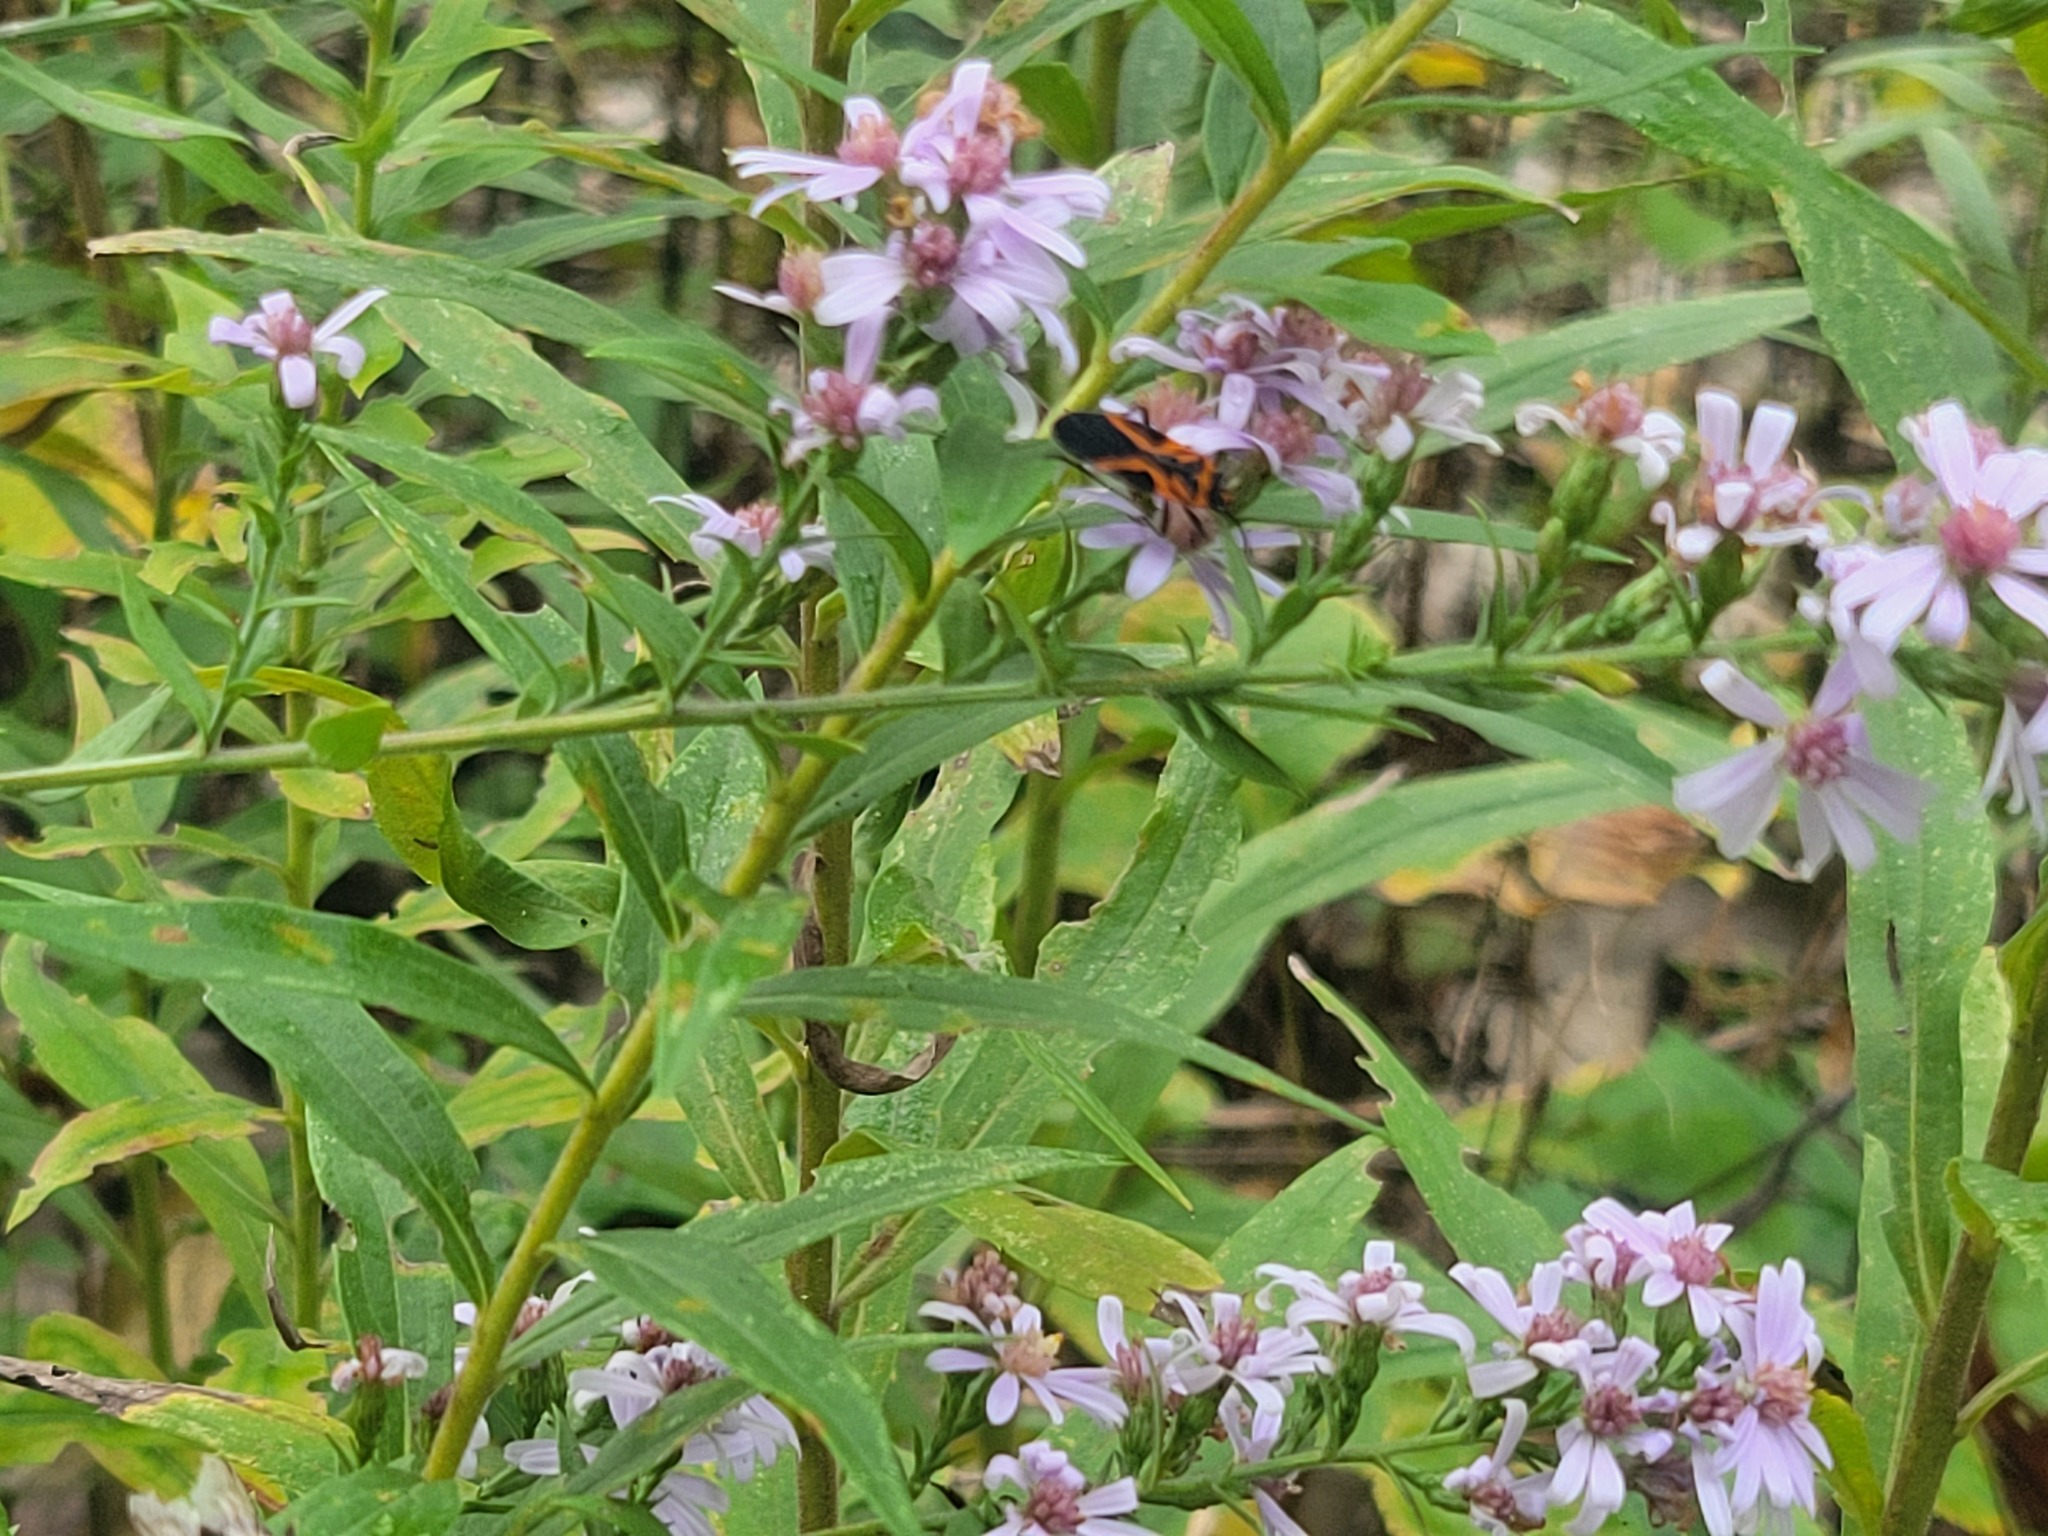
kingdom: Animalia
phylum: Arthropoda
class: Insecta
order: Hemiptera
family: Lygaeidae
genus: Lygaeus
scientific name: Lygaeus turcicus
